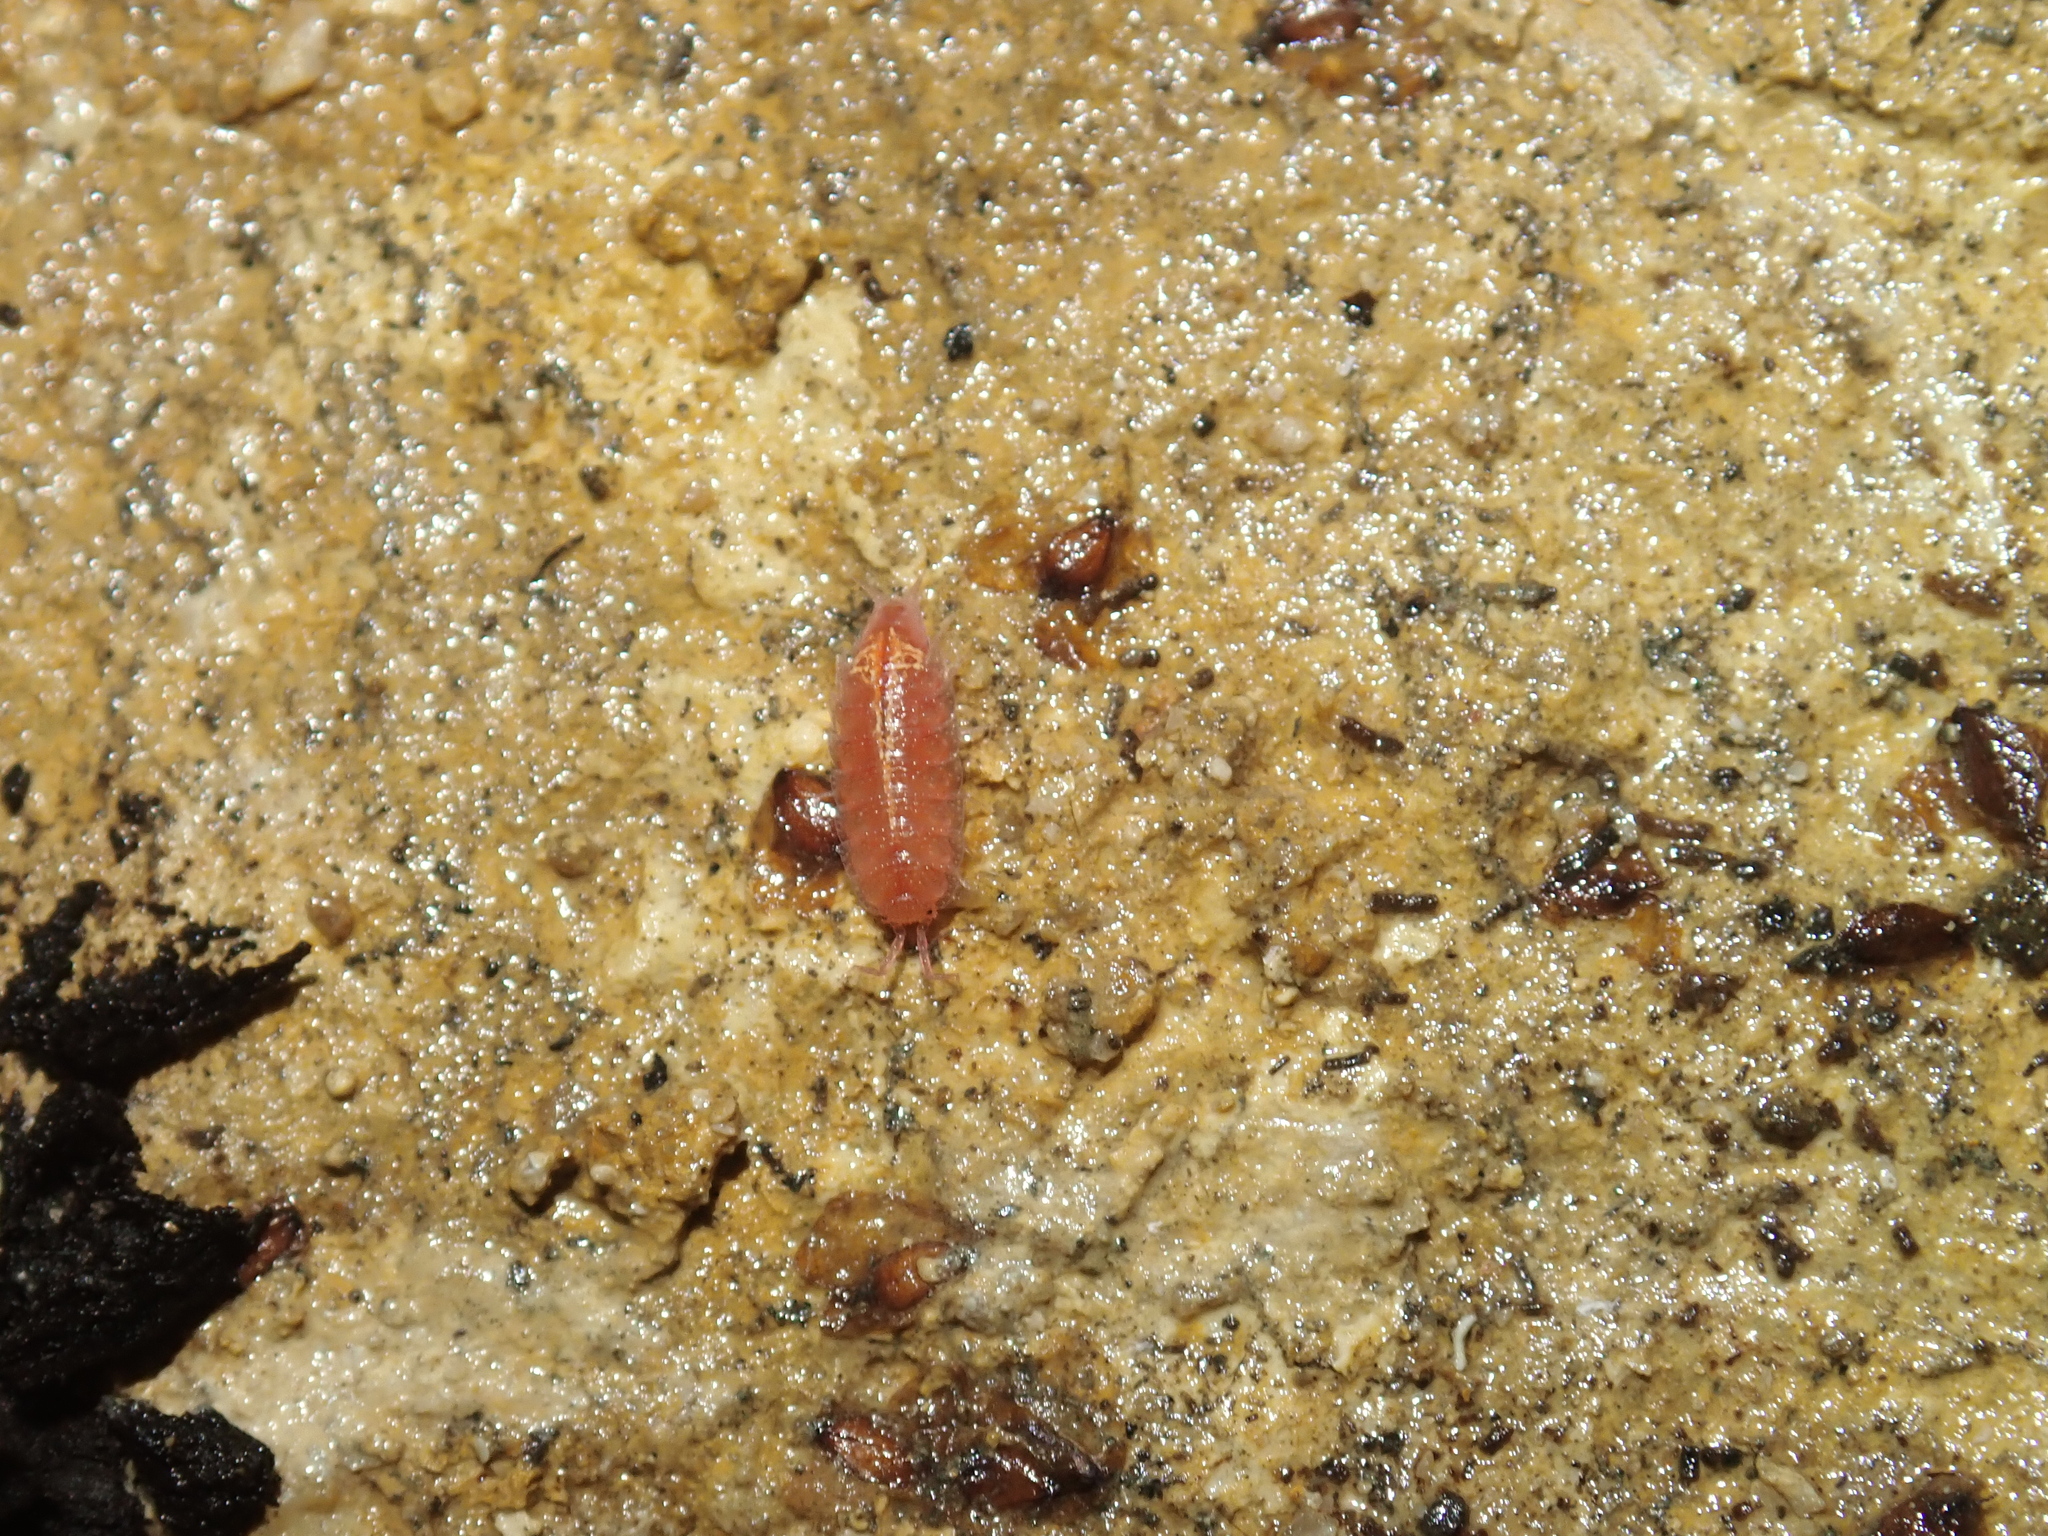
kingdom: Animalia
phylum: Arthropoda
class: Malacostraca
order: Isopoda
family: Trichoniscidae
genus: Androniscus
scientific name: Androniscus dentiger
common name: Rosy woodlouse
